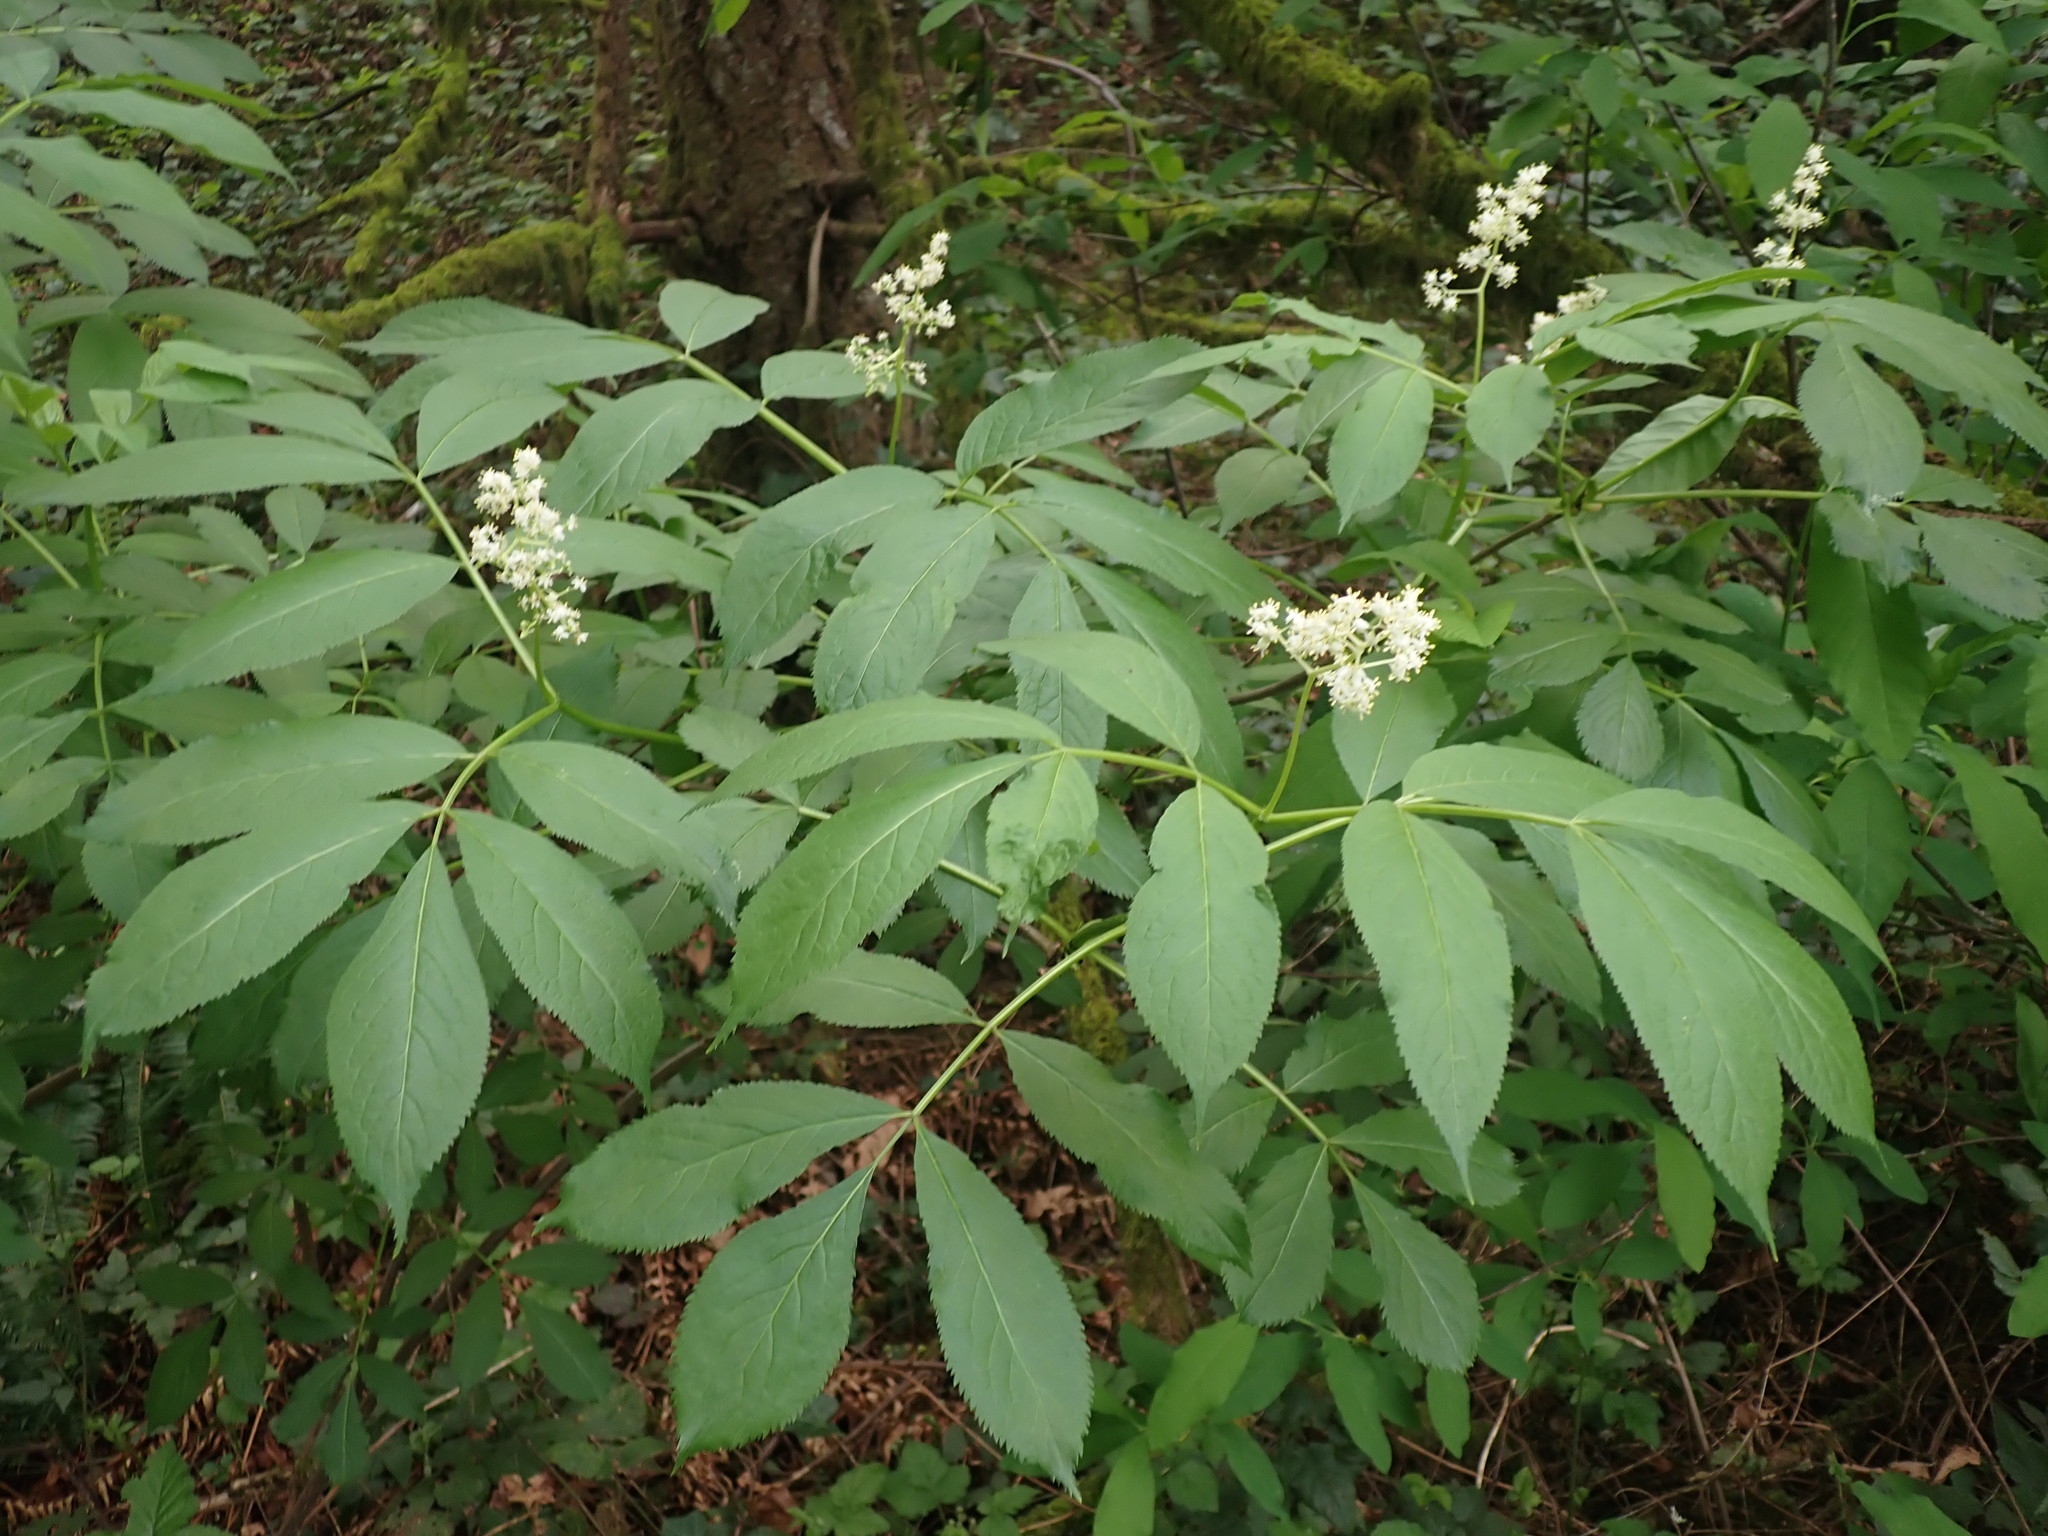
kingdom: Plantae
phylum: Tracheophyta
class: Magnoliopsida
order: Dipsacales
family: Viburnaceae
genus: Sambucus
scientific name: Sambucus racemosa
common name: Red-berried elder
